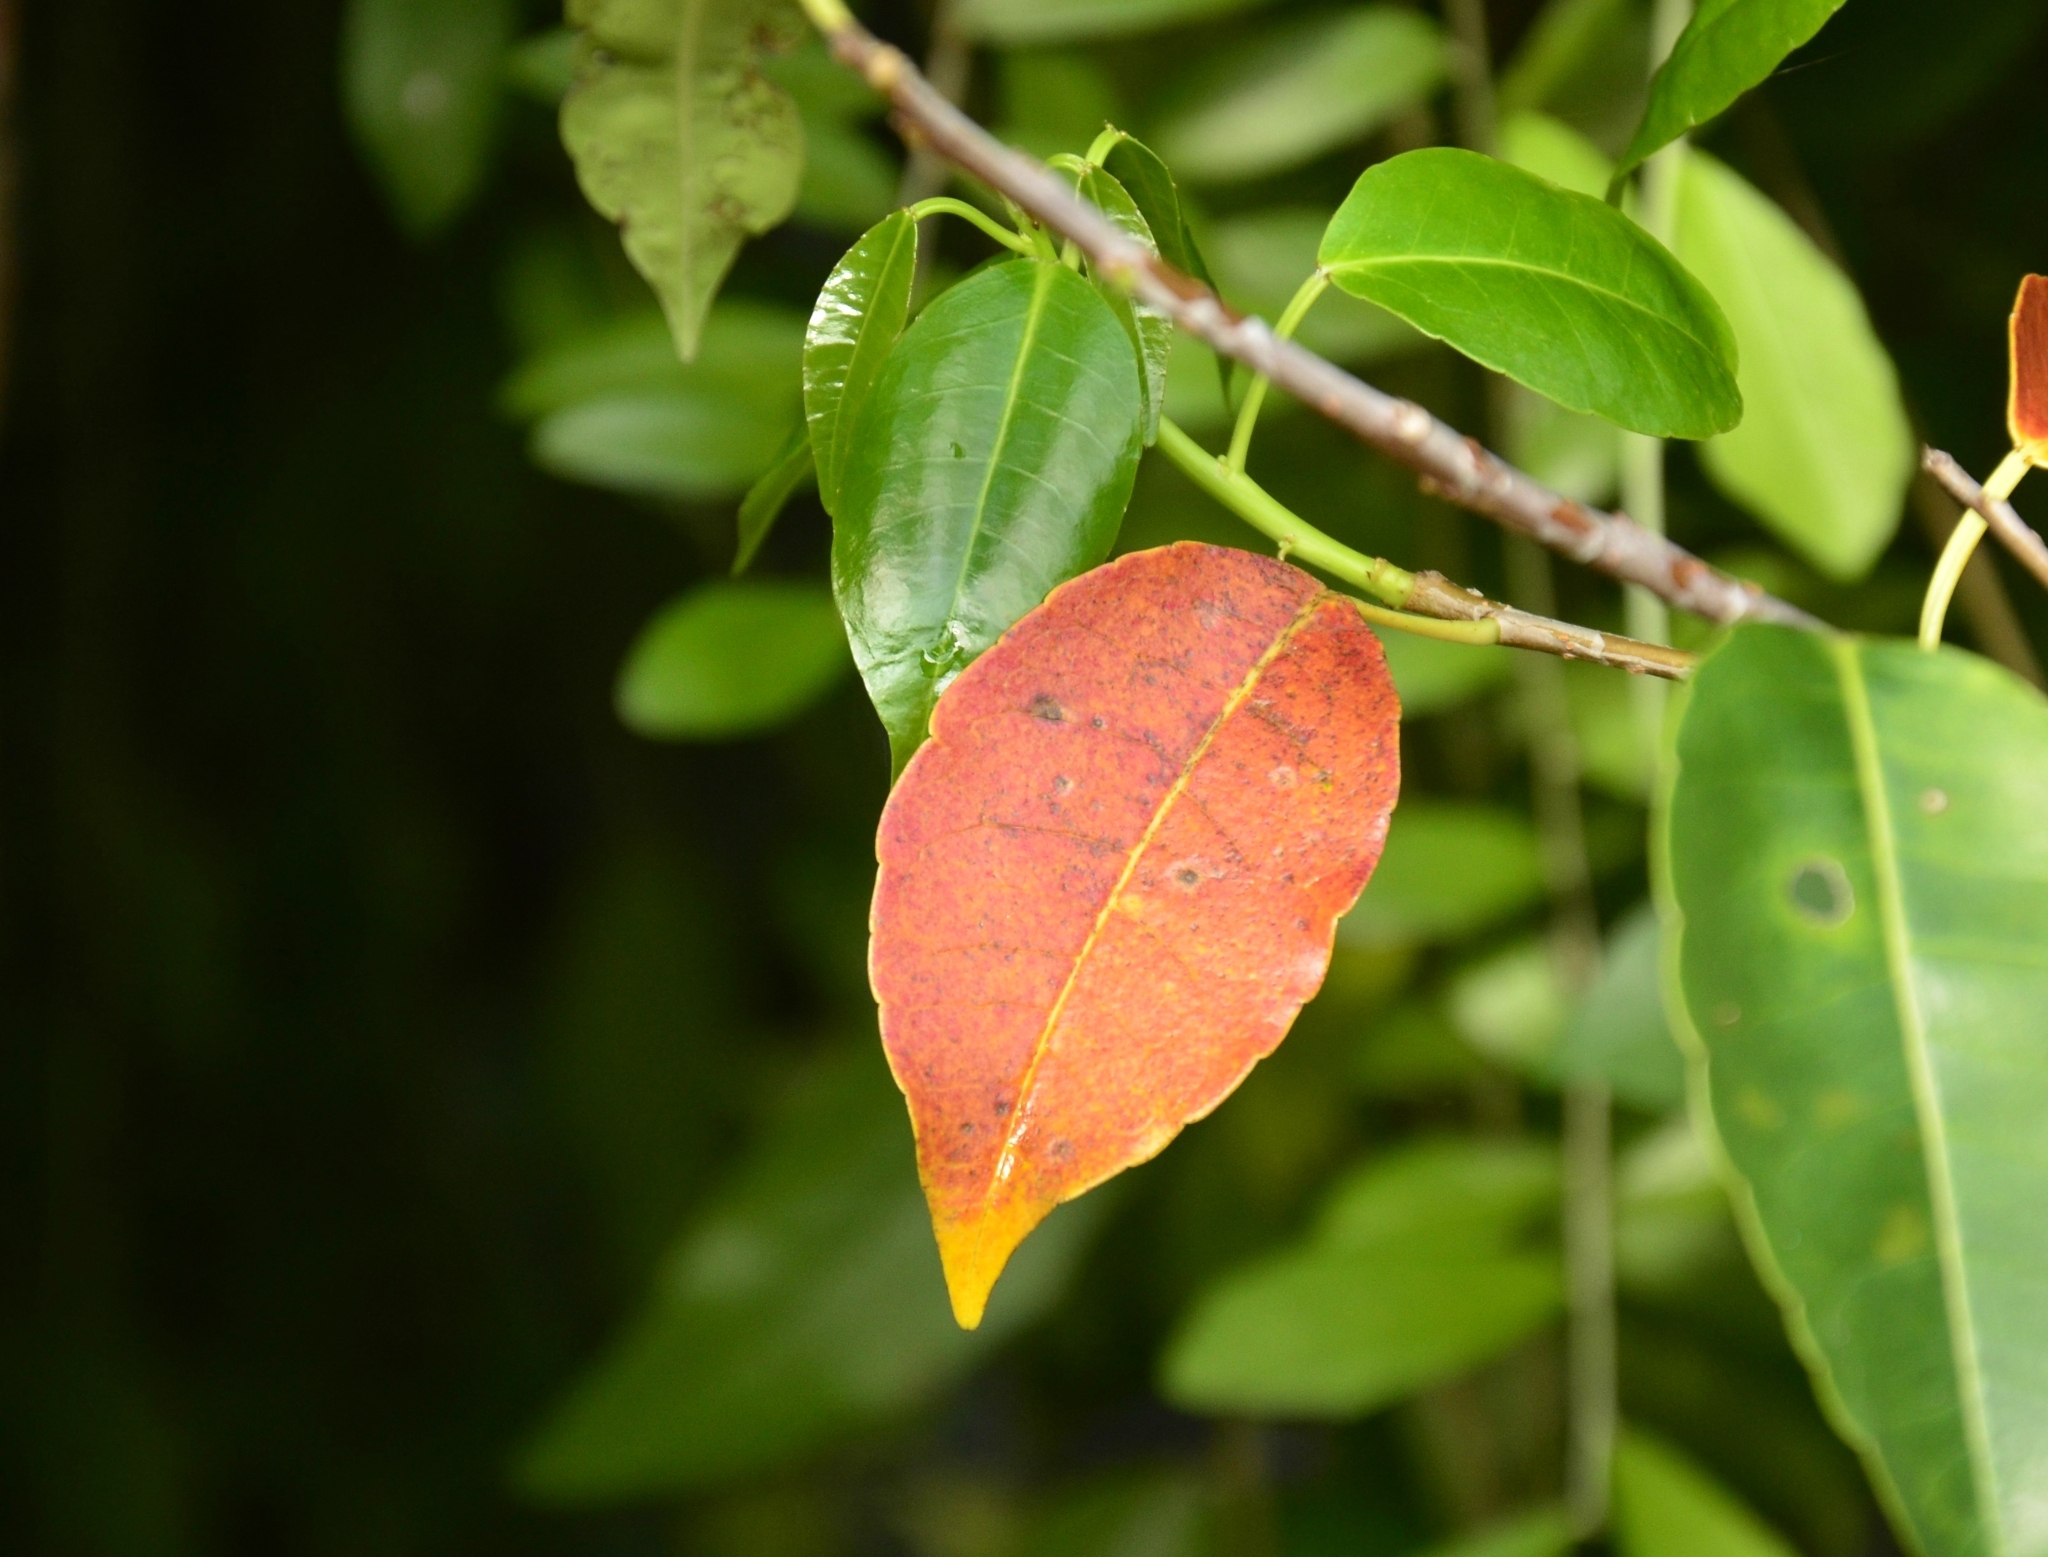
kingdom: Plantae
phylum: Tracheophyta
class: Magnoliopsida
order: Malpighiales
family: Euphorbiaceae
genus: Excoecaria
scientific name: Excoecaria agallocha
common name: River poisontree
